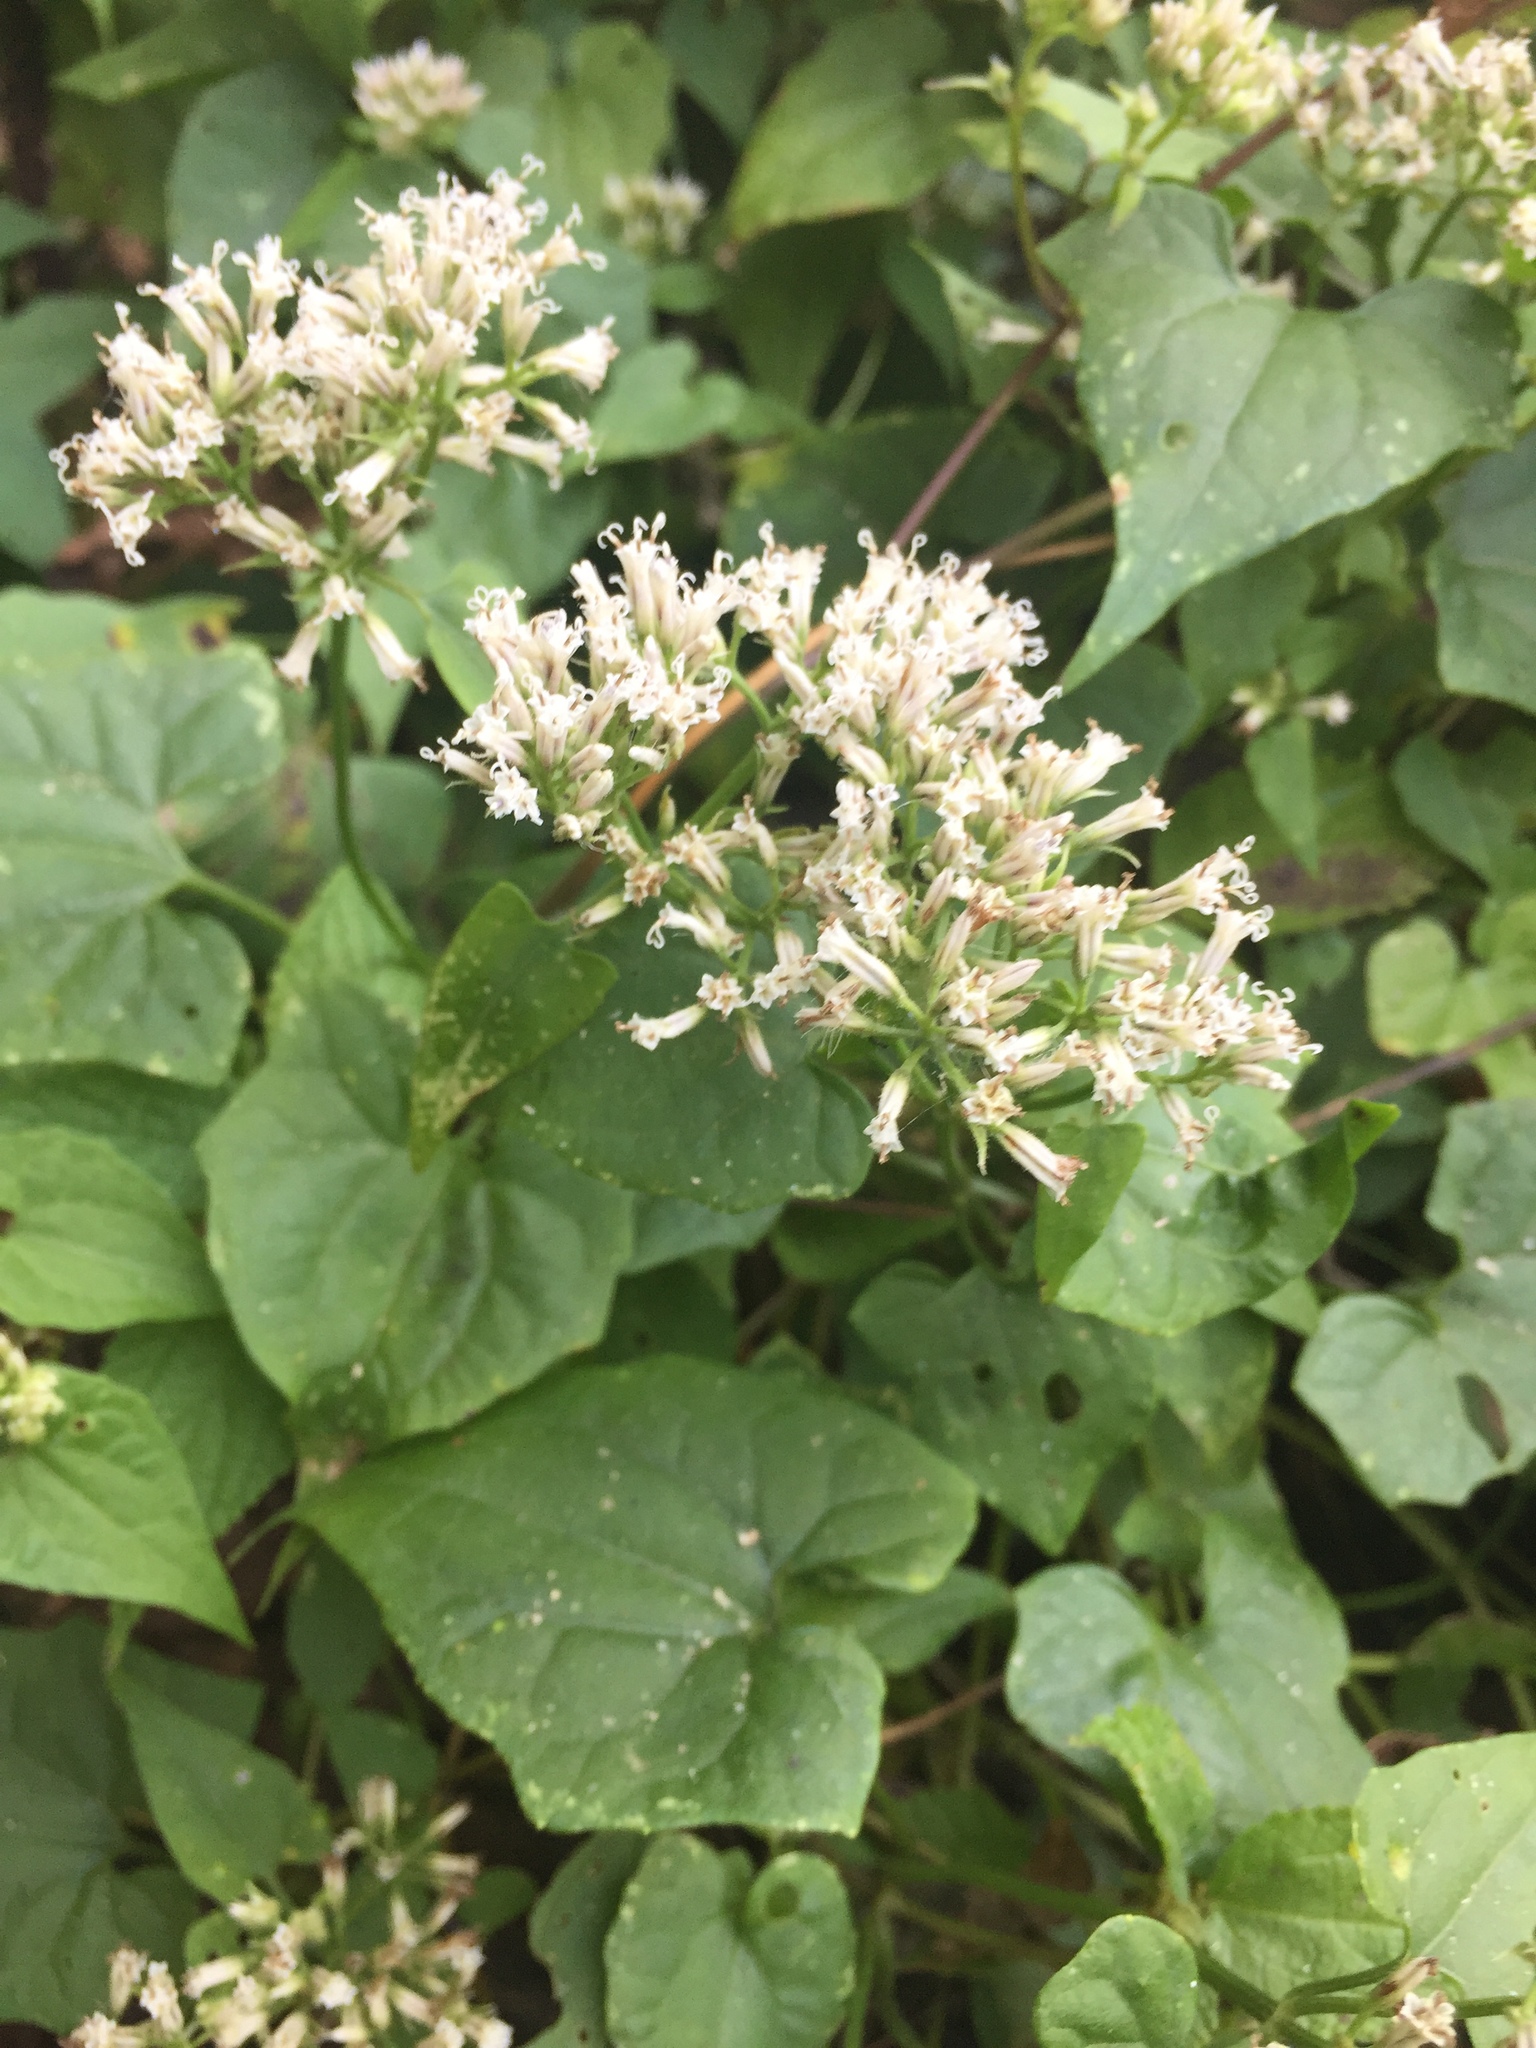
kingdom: Plantae
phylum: Tracheophyta
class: Magnoliopsida
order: Asterales
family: Asteraceae
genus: Mikania
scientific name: Mikania scandens
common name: Climbing hempvine
